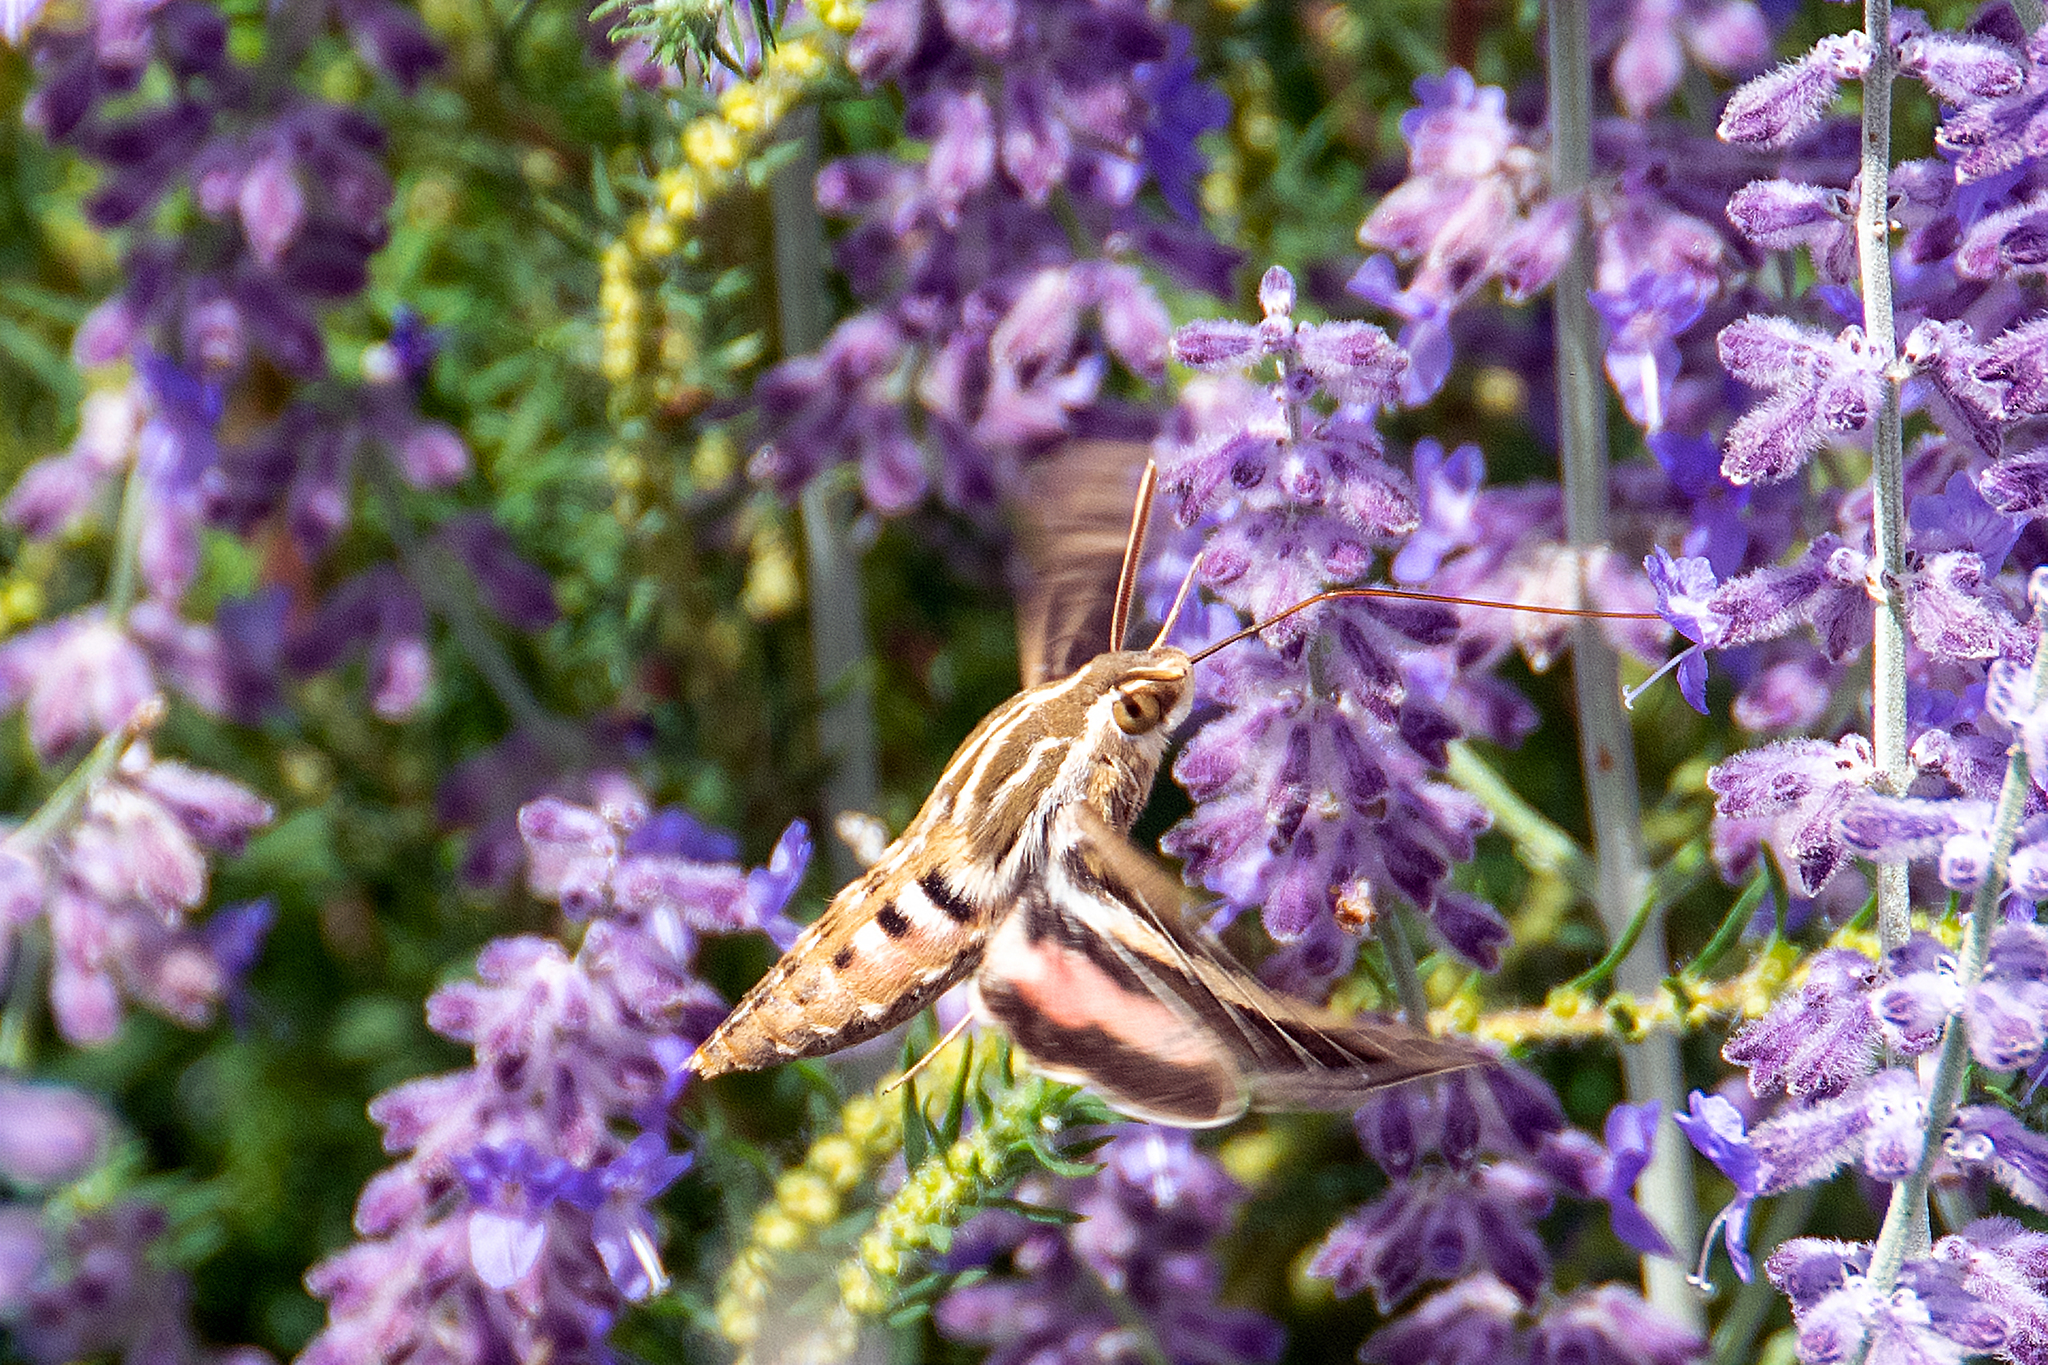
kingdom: Animalia
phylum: Arthropoda
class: Insecta
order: Lepidoptera
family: Sphingidae
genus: Hyles
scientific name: Hyles lineata
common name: White-lined sphinx
